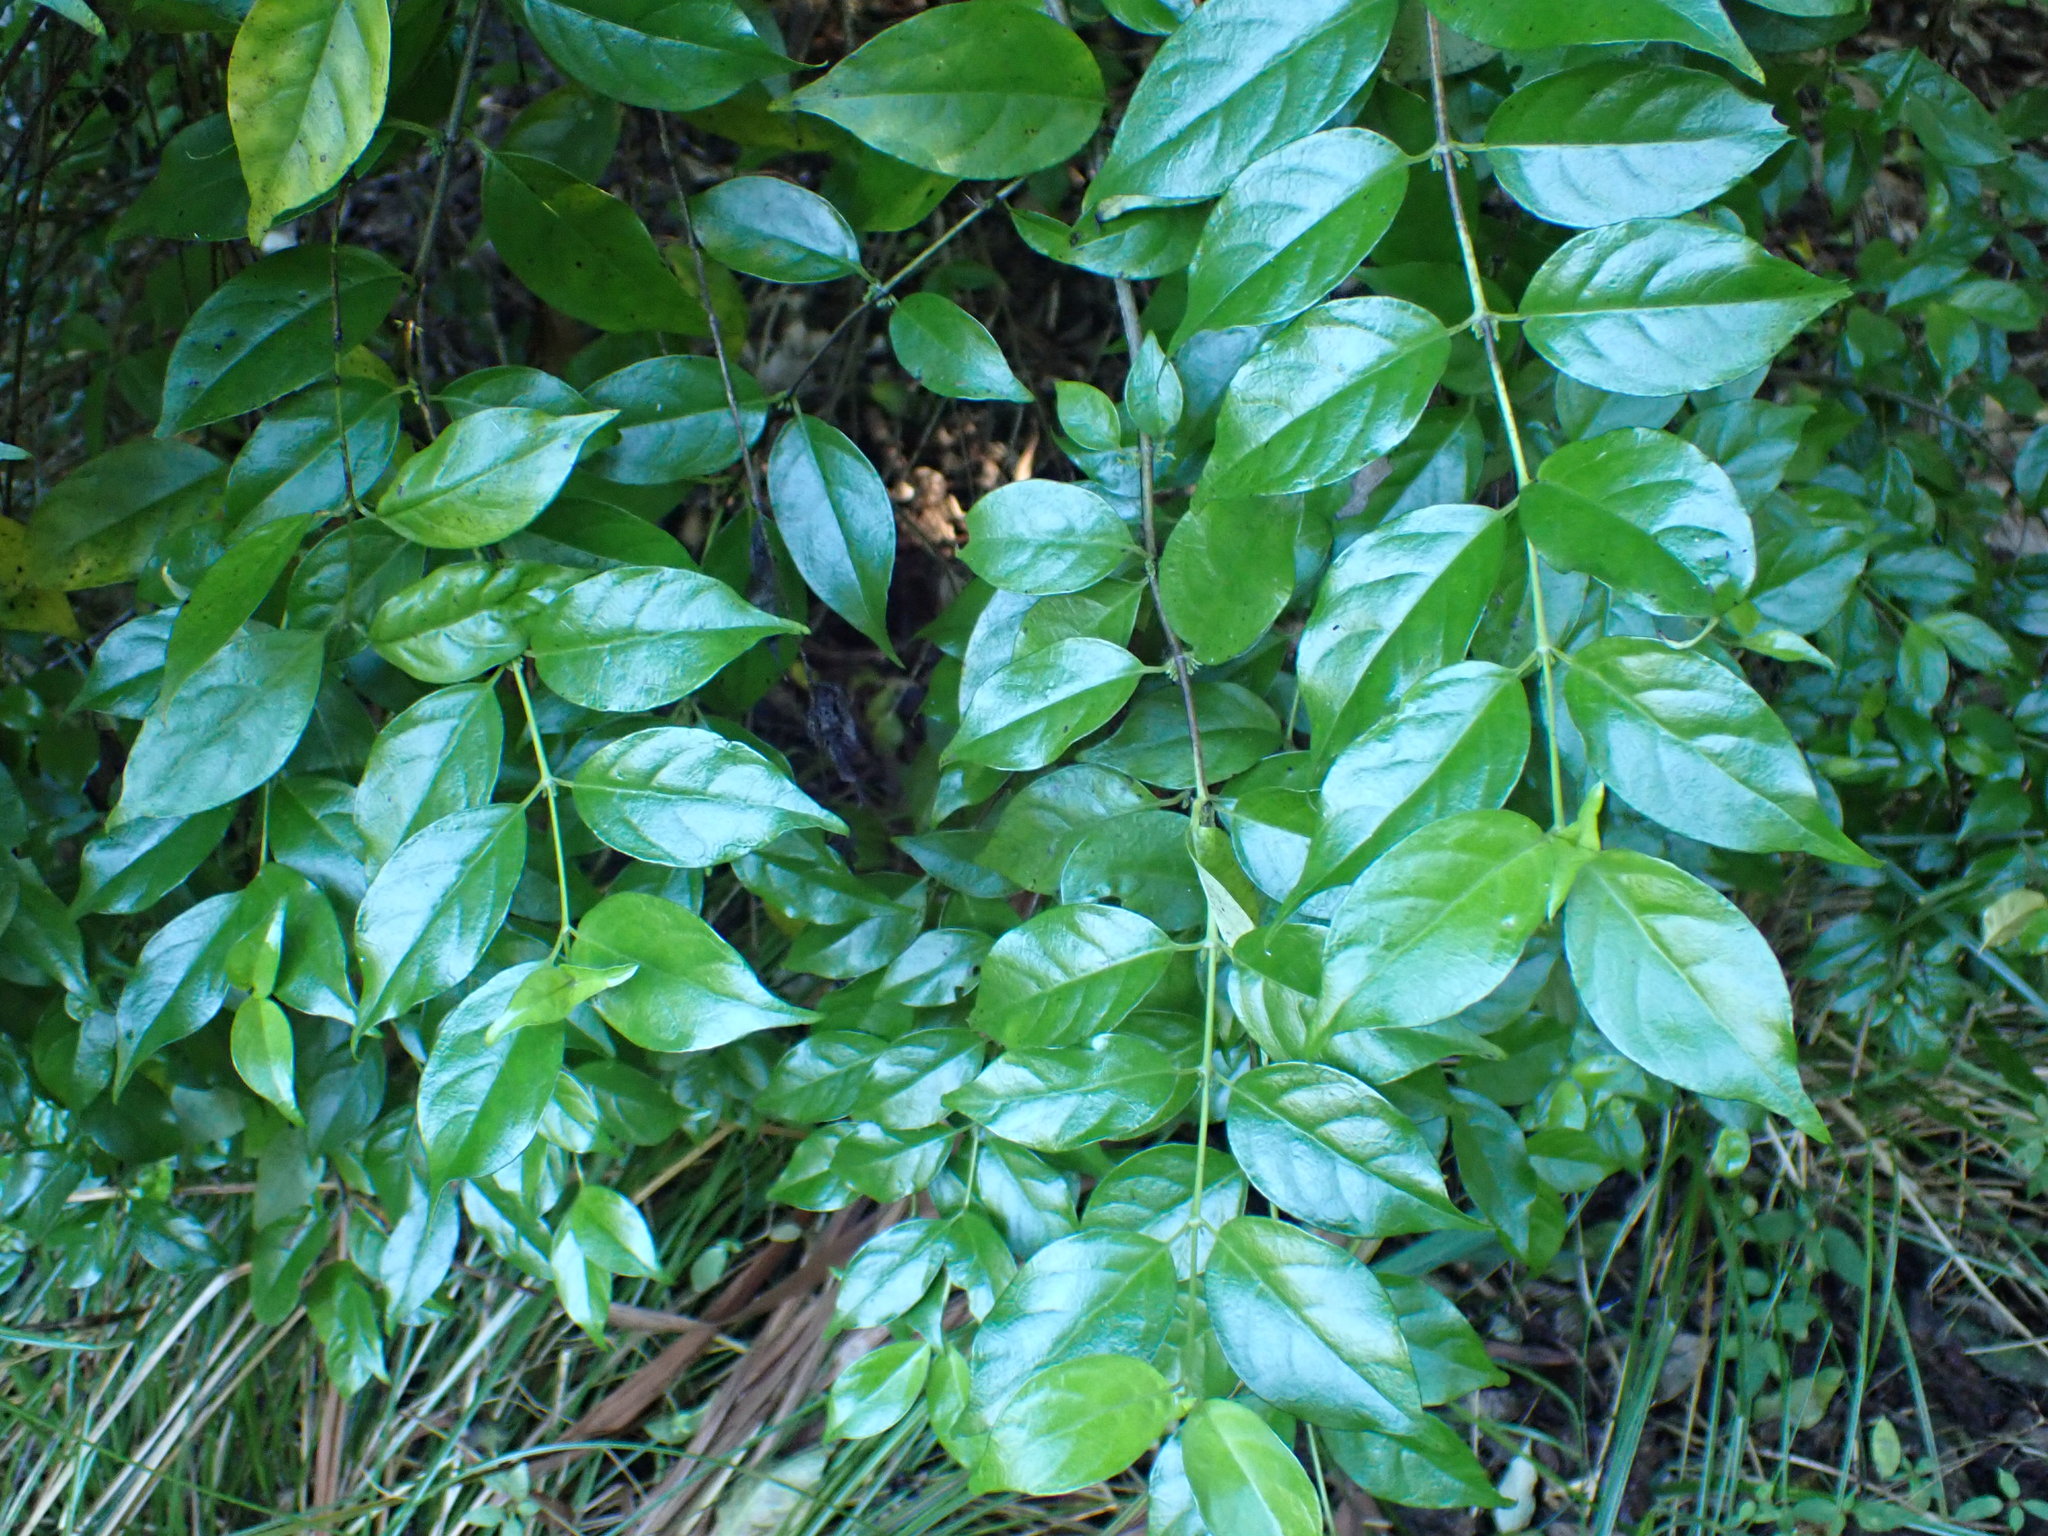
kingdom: Plantae
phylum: Tracheophyta
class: Magnoliopsida
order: Gentianales
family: Loganiaceae
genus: Geniostoma
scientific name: Geniostoma ligustrifolium
